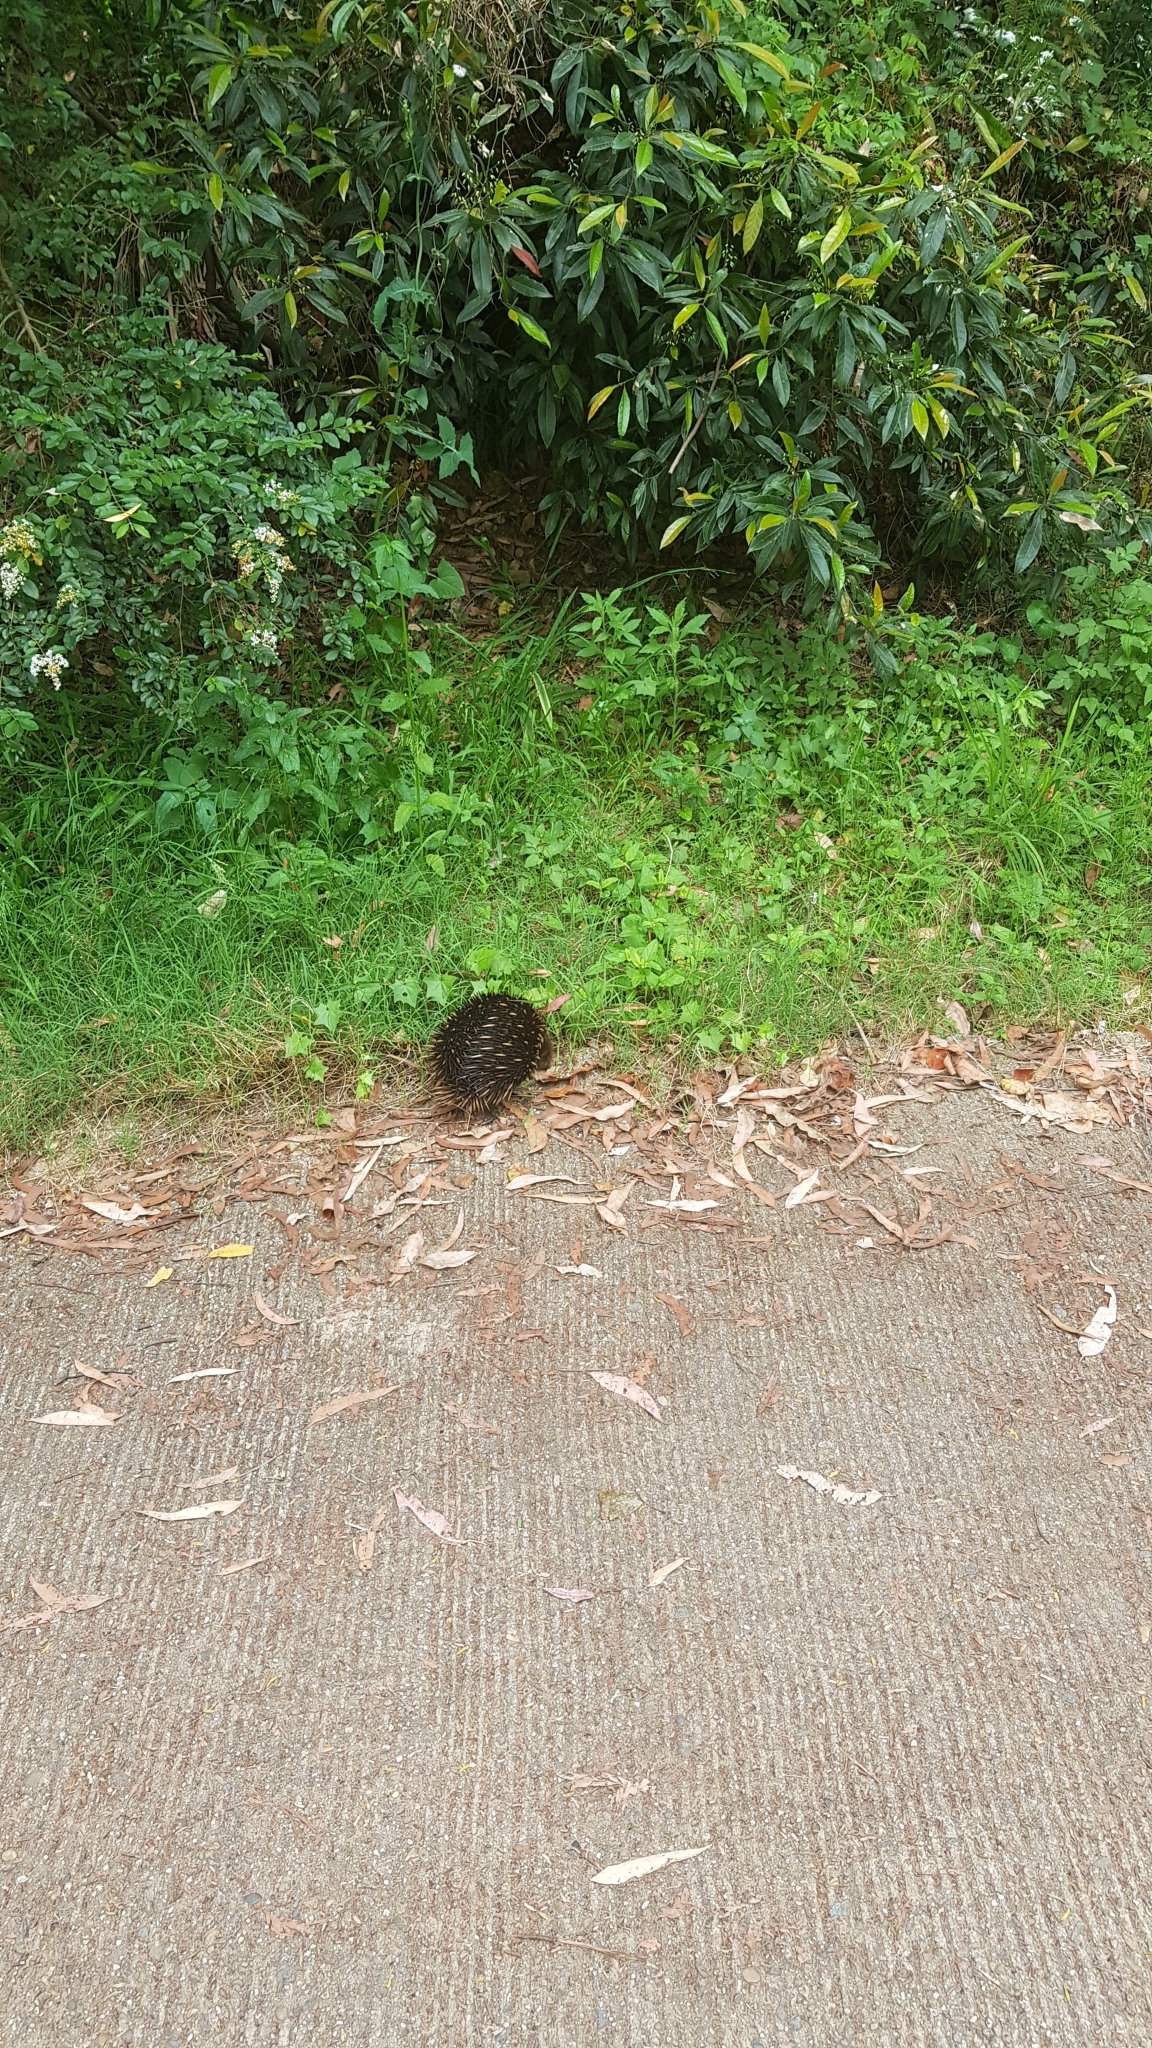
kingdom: Animalia
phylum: Chordata
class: Mammalia
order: Monotremata
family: Tachyglossidae
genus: Tachyglossus
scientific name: Tachyglossus aculeatus
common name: Short-beaked echidna
